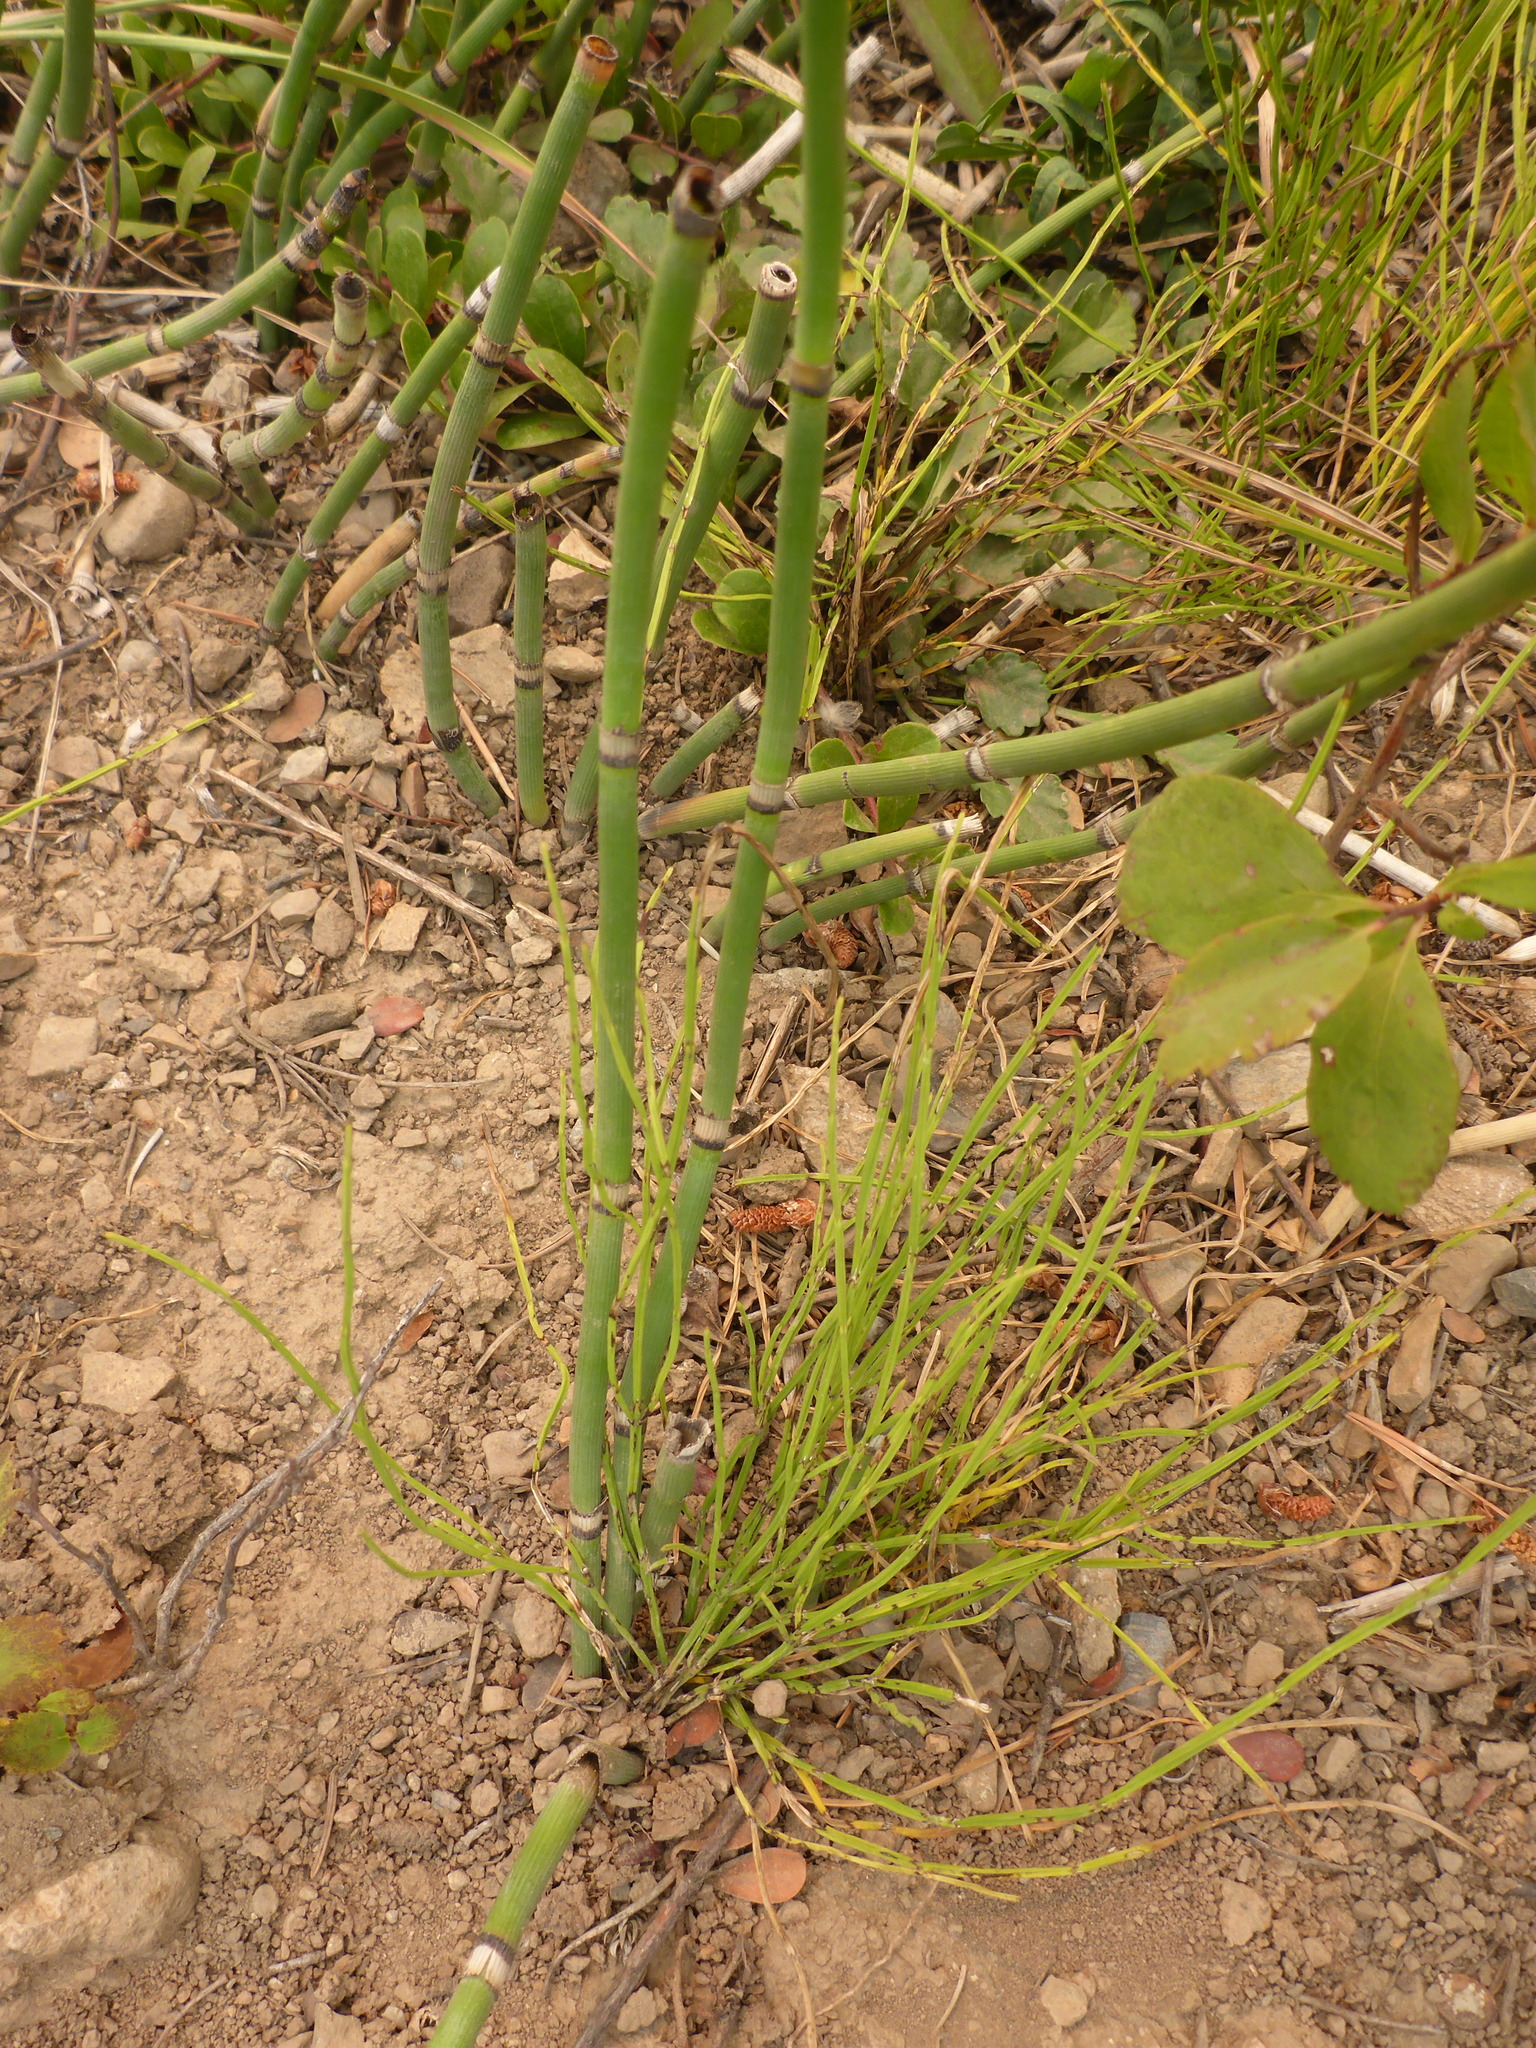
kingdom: Plantae
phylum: Tracheophyta
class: Polypodiopsida
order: Equisetales
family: Equisetaceae
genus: Equisetum
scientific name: Equisetum hyemale
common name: Rough horsetail
